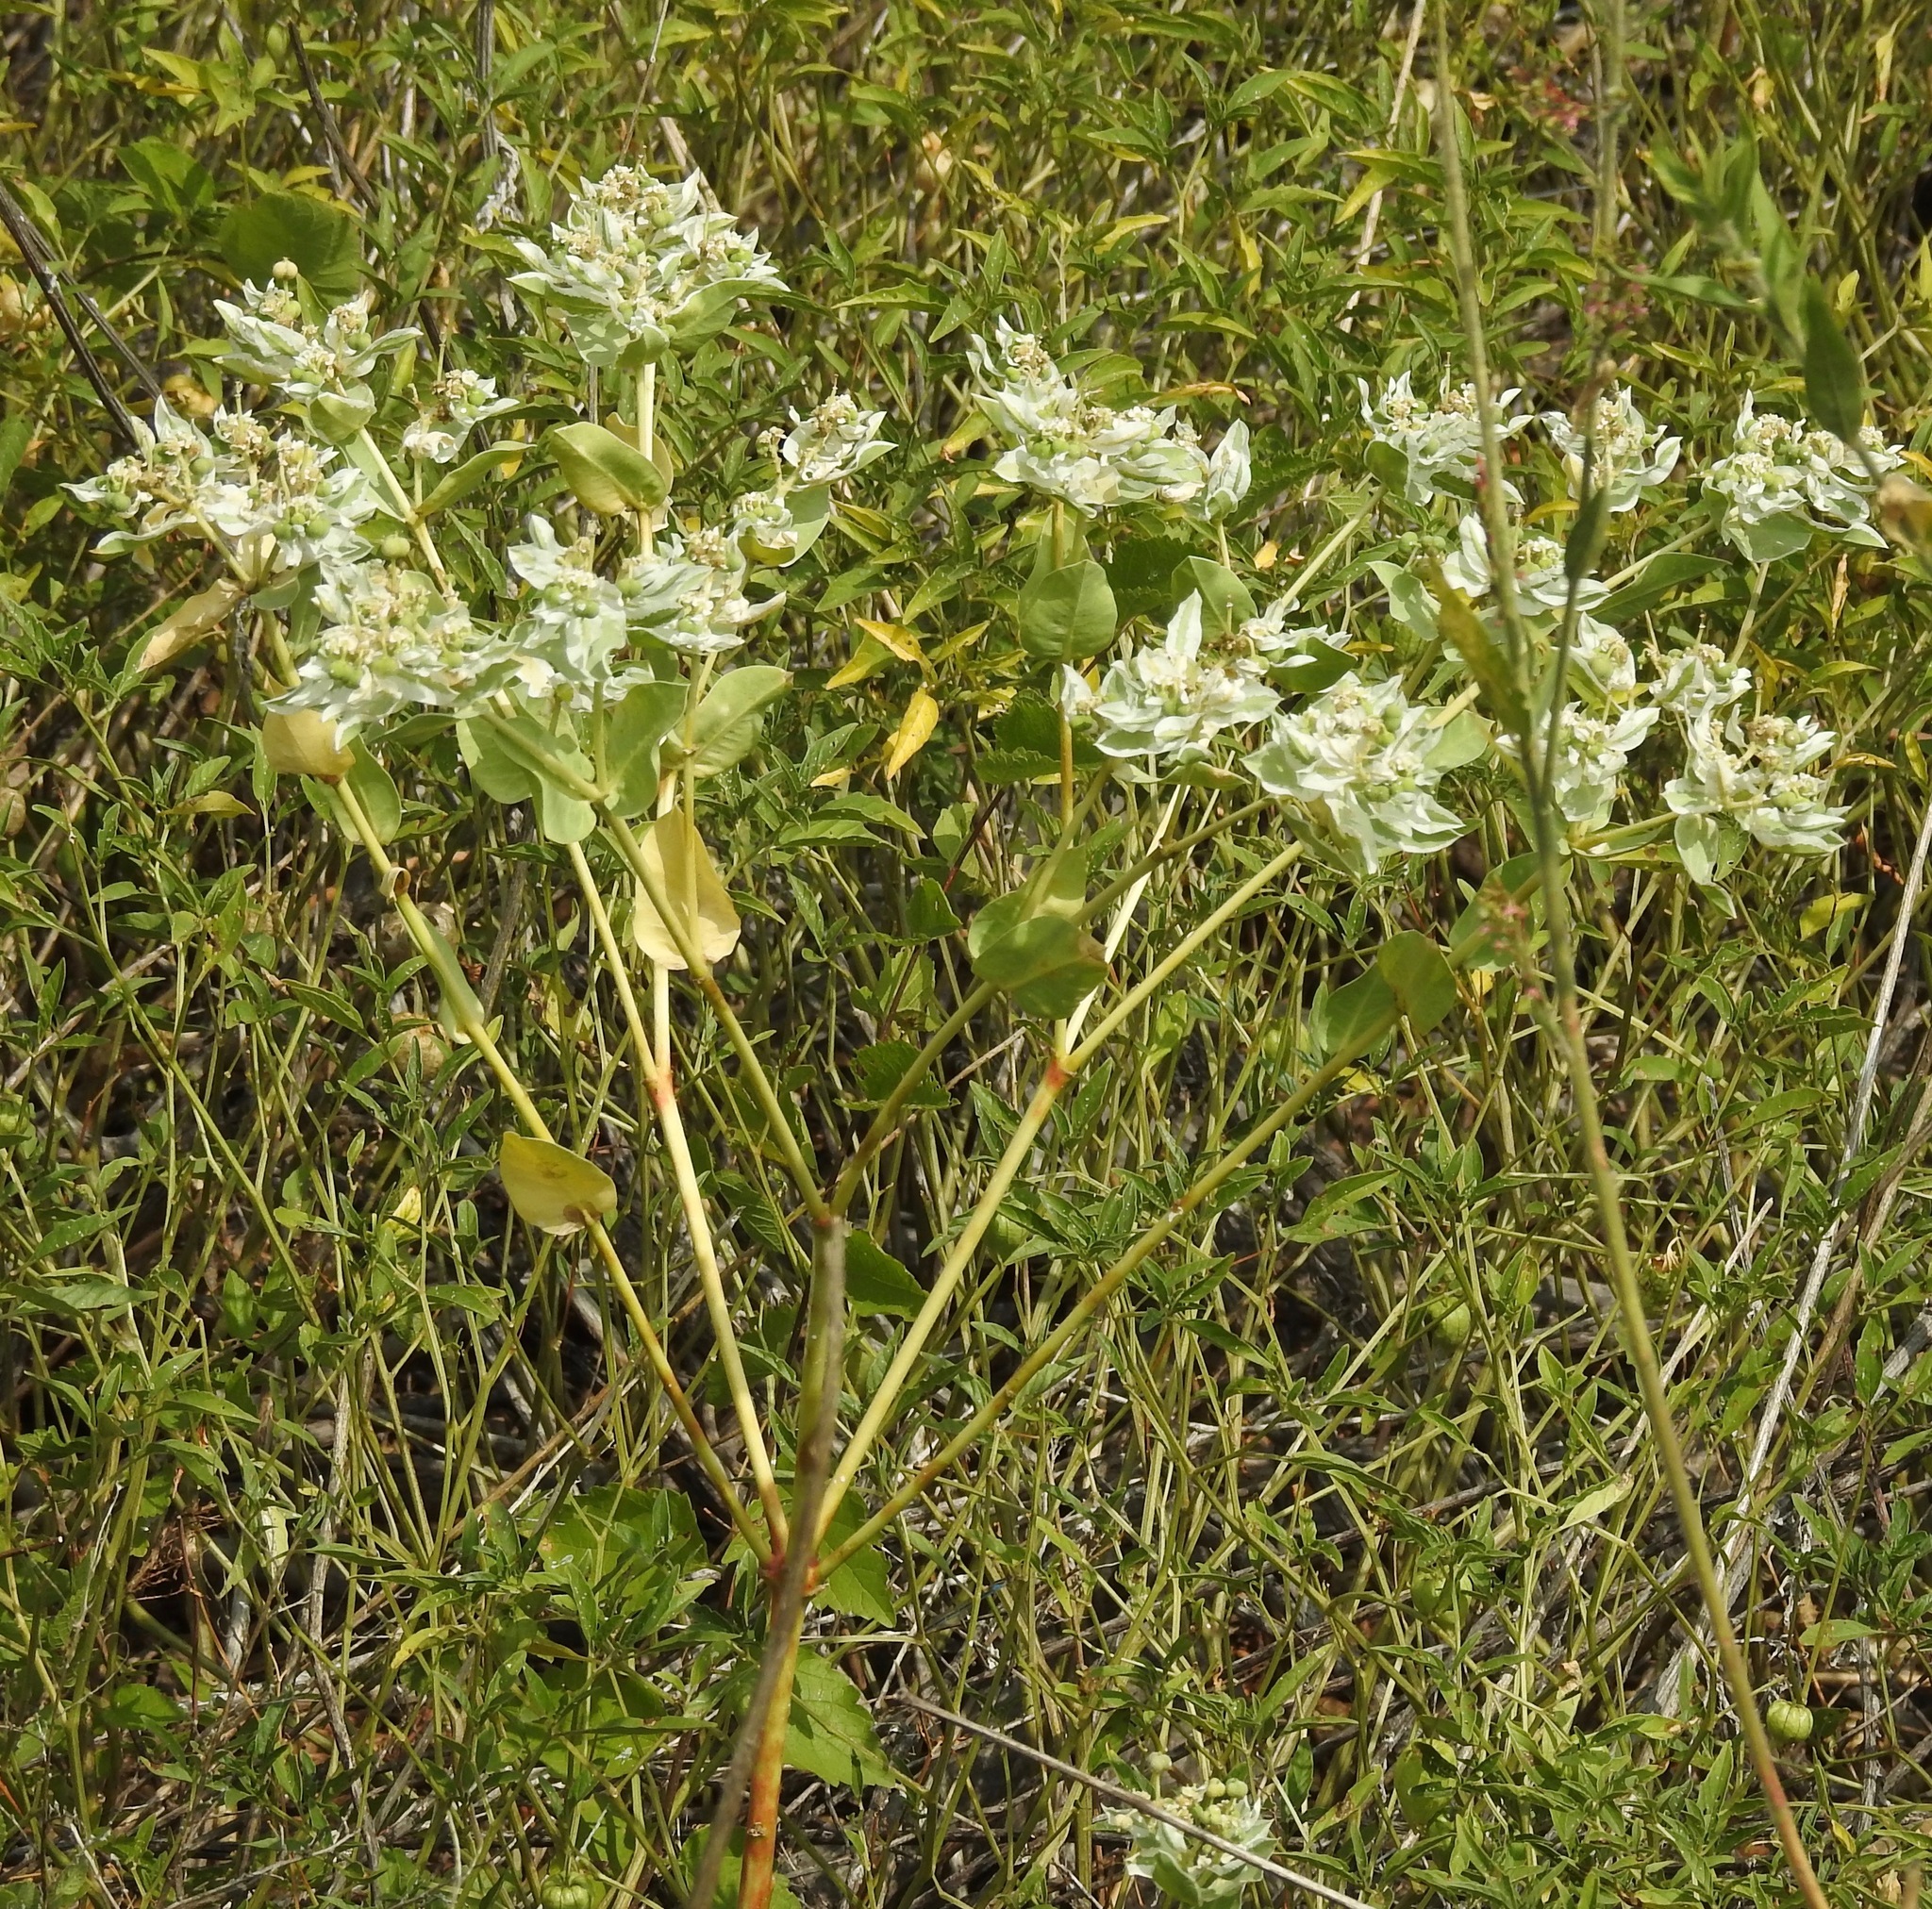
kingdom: Plantae
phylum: Tracheophyta
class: Magnoliopsida
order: Malpighiales
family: Euphorbiaceae
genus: Euphorbia
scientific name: Euphorbia marginata
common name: Ghostweed
